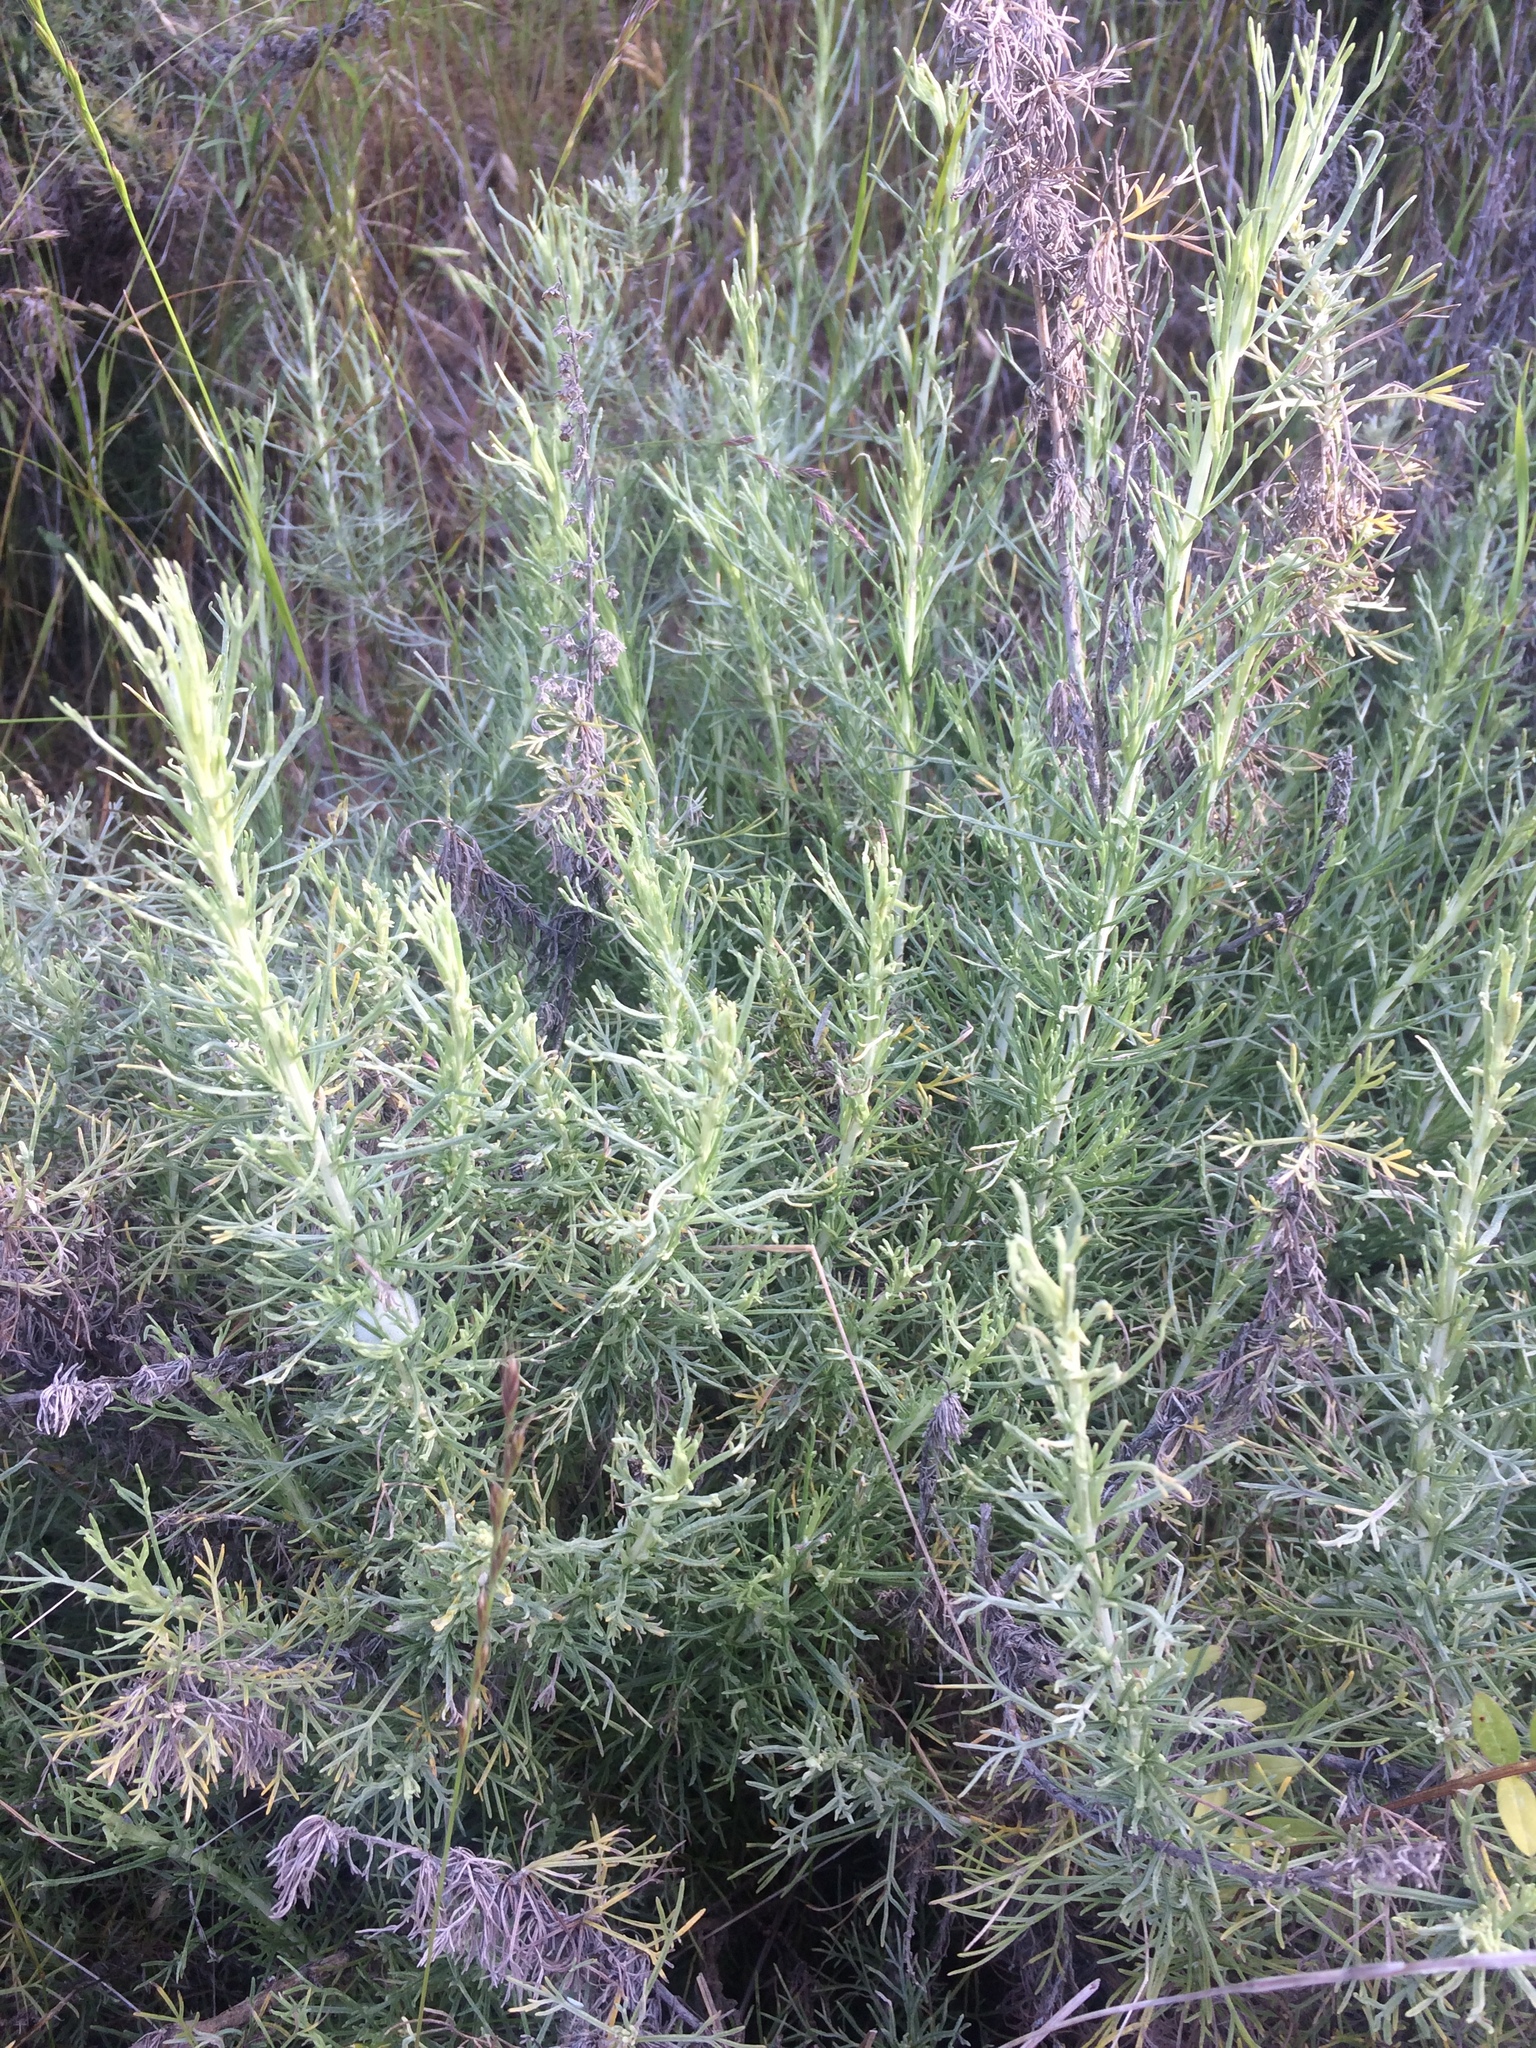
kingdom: Plantae
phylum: Tracheophyta
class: Magnoliopsida
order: Asterales
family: Asteraceae
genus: Artemisia
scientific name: Artemisia californica
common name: California sagebrush
